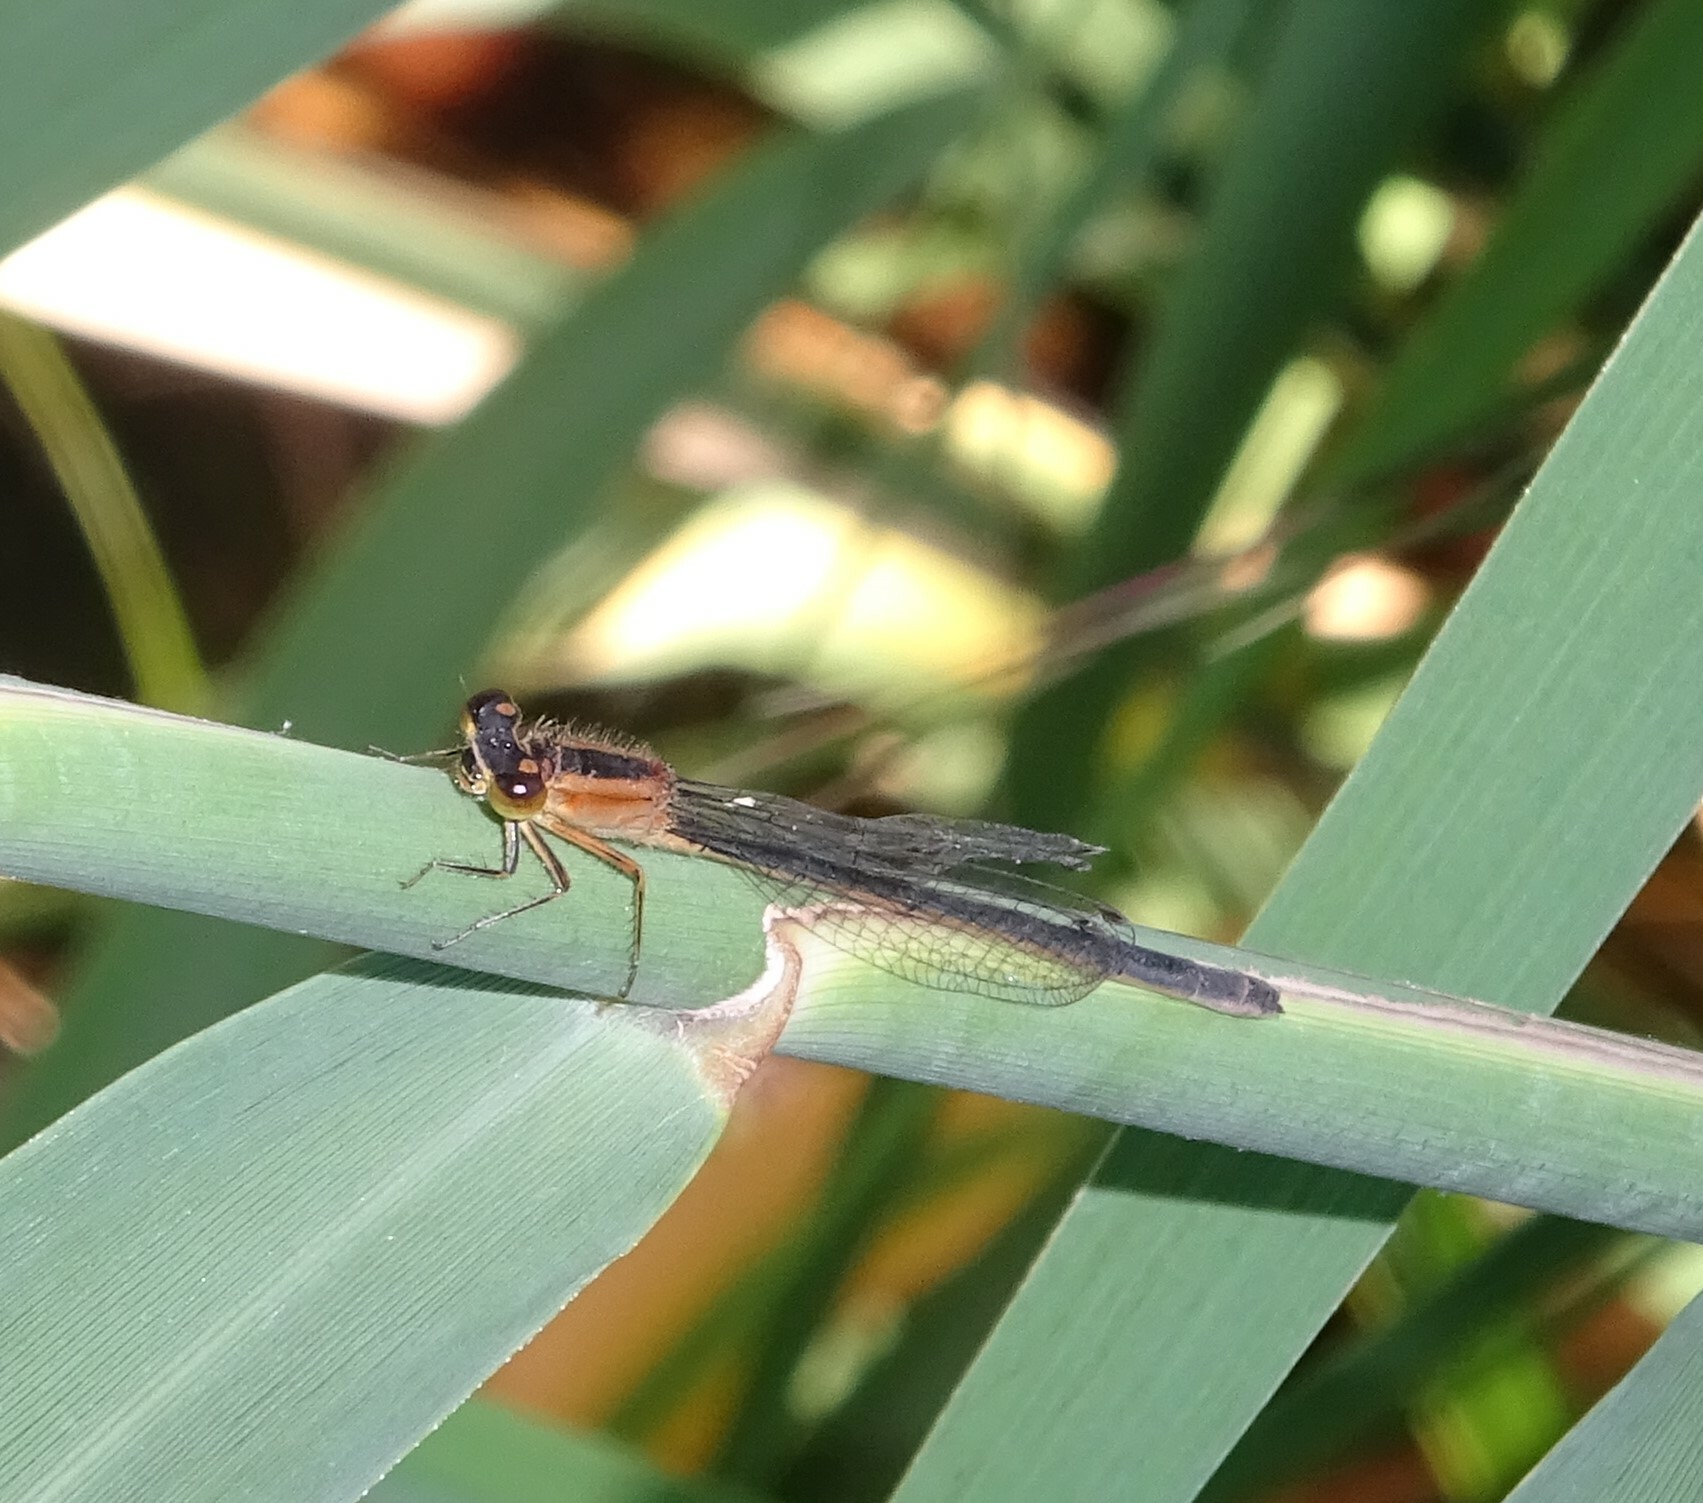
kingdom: Animalia
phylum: Arthropoda
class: Insecta
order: Odonata
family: Coenagrionidae
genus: Ischnura
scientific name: Ischnura elegans
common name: Blue-tailed damselfly
